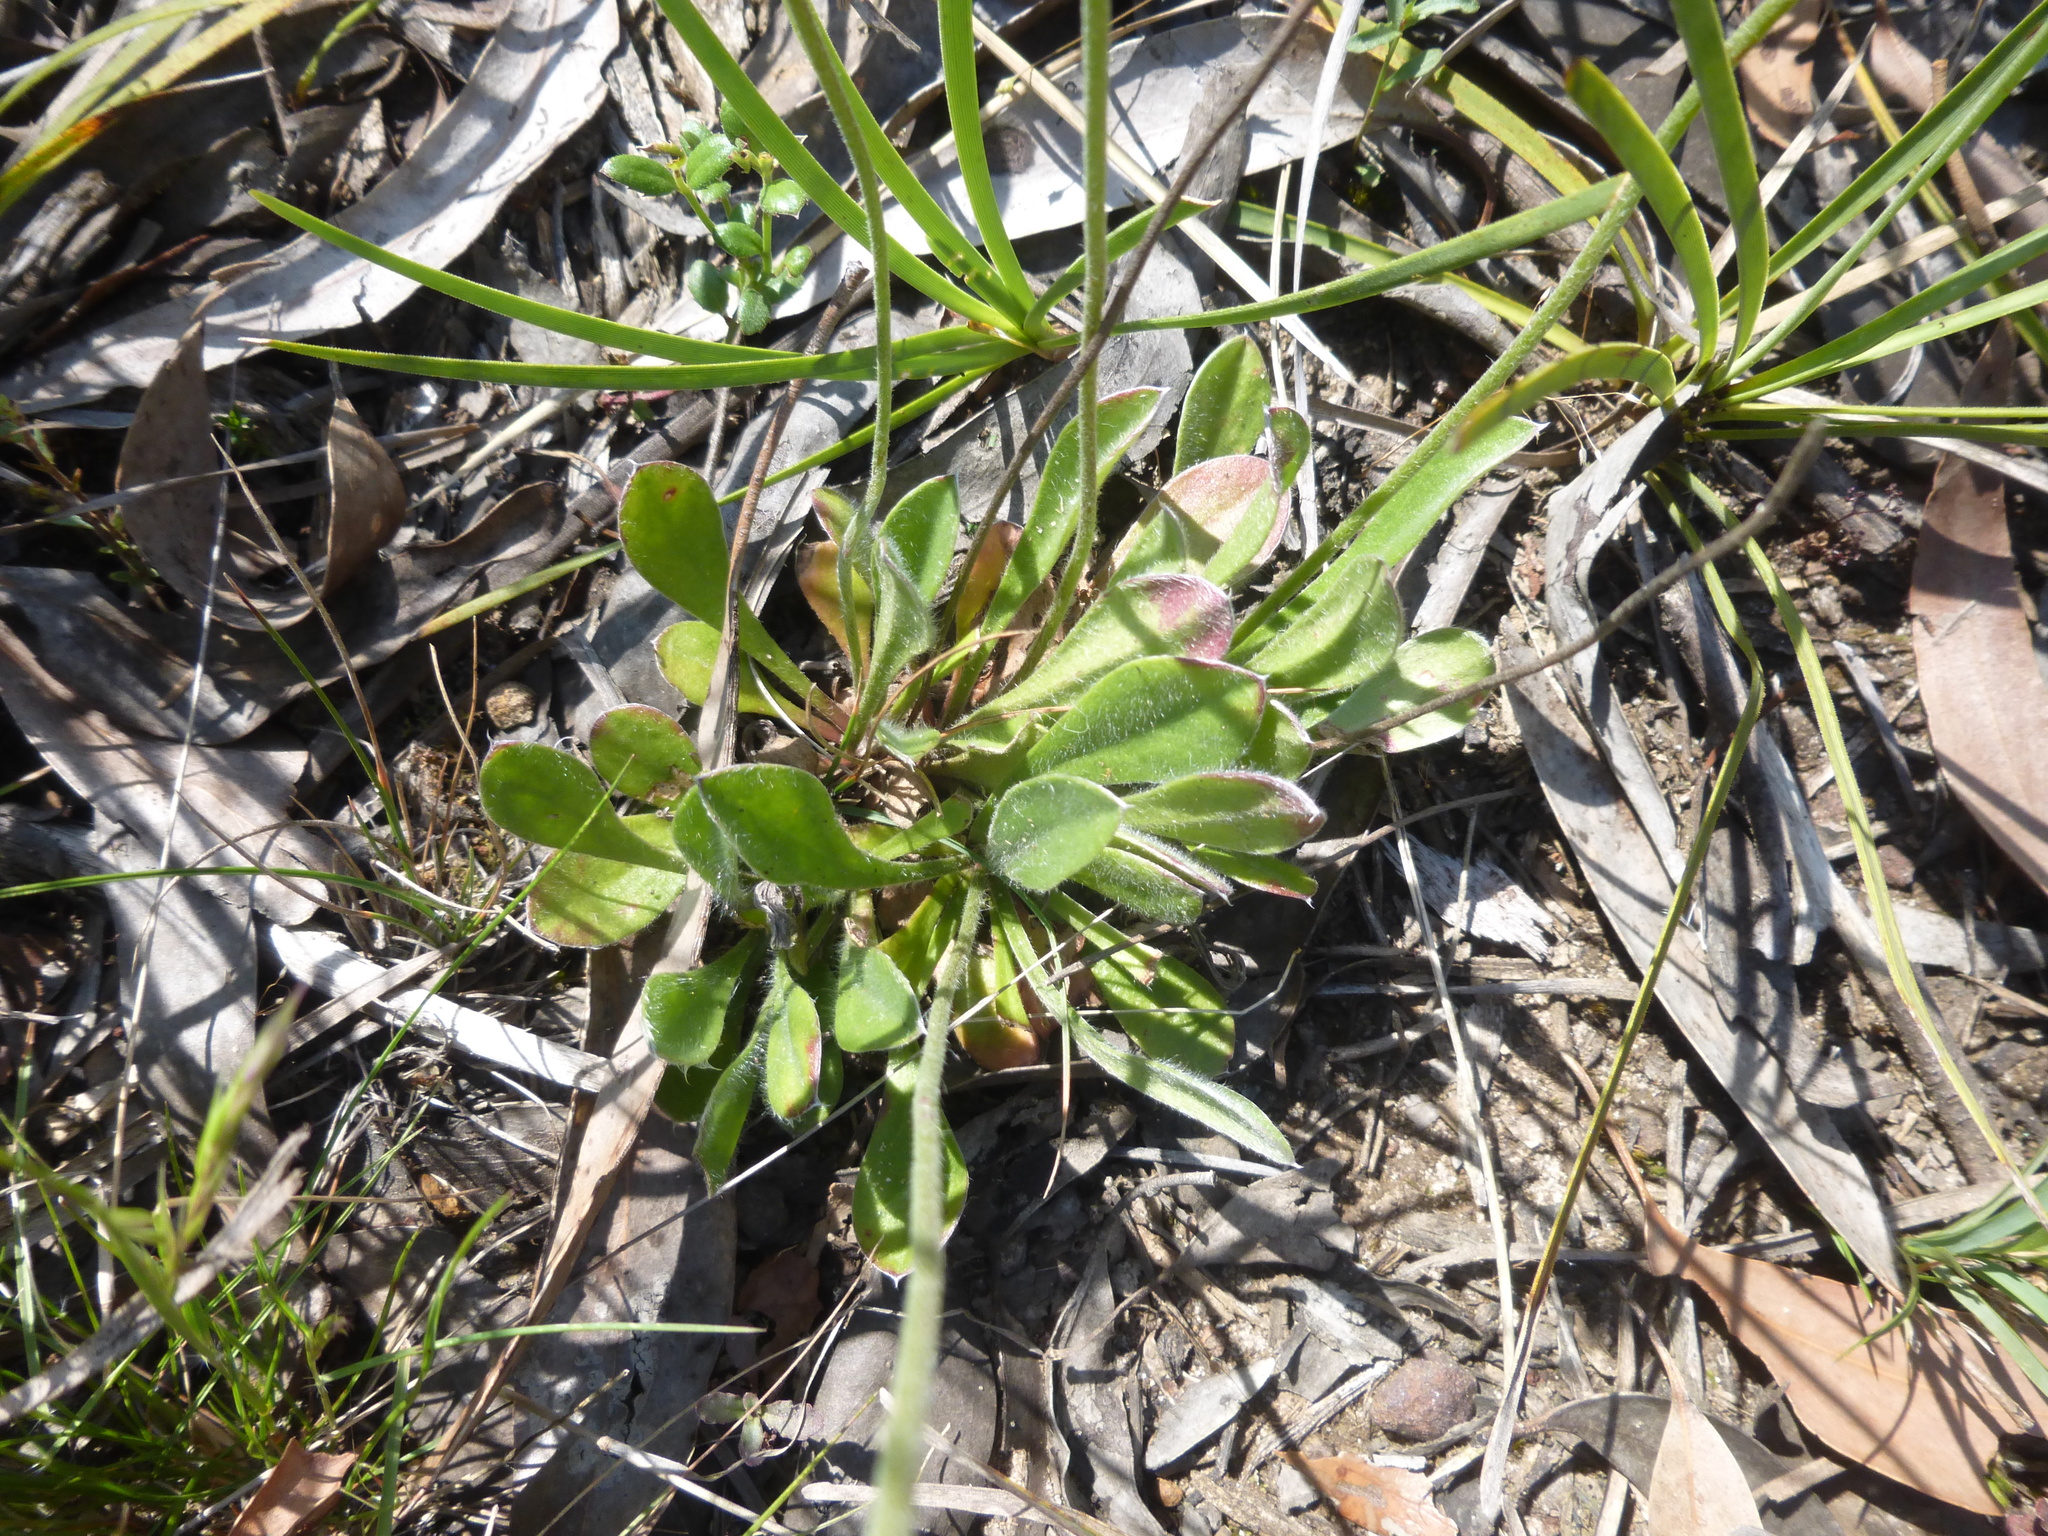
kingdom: Plantae
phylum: Tracheophyta
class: Magnoliopsida
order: Asterales
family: Goodeniaceae
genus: Brunonia
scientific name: Brunonia australis
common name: Blue pincushion
